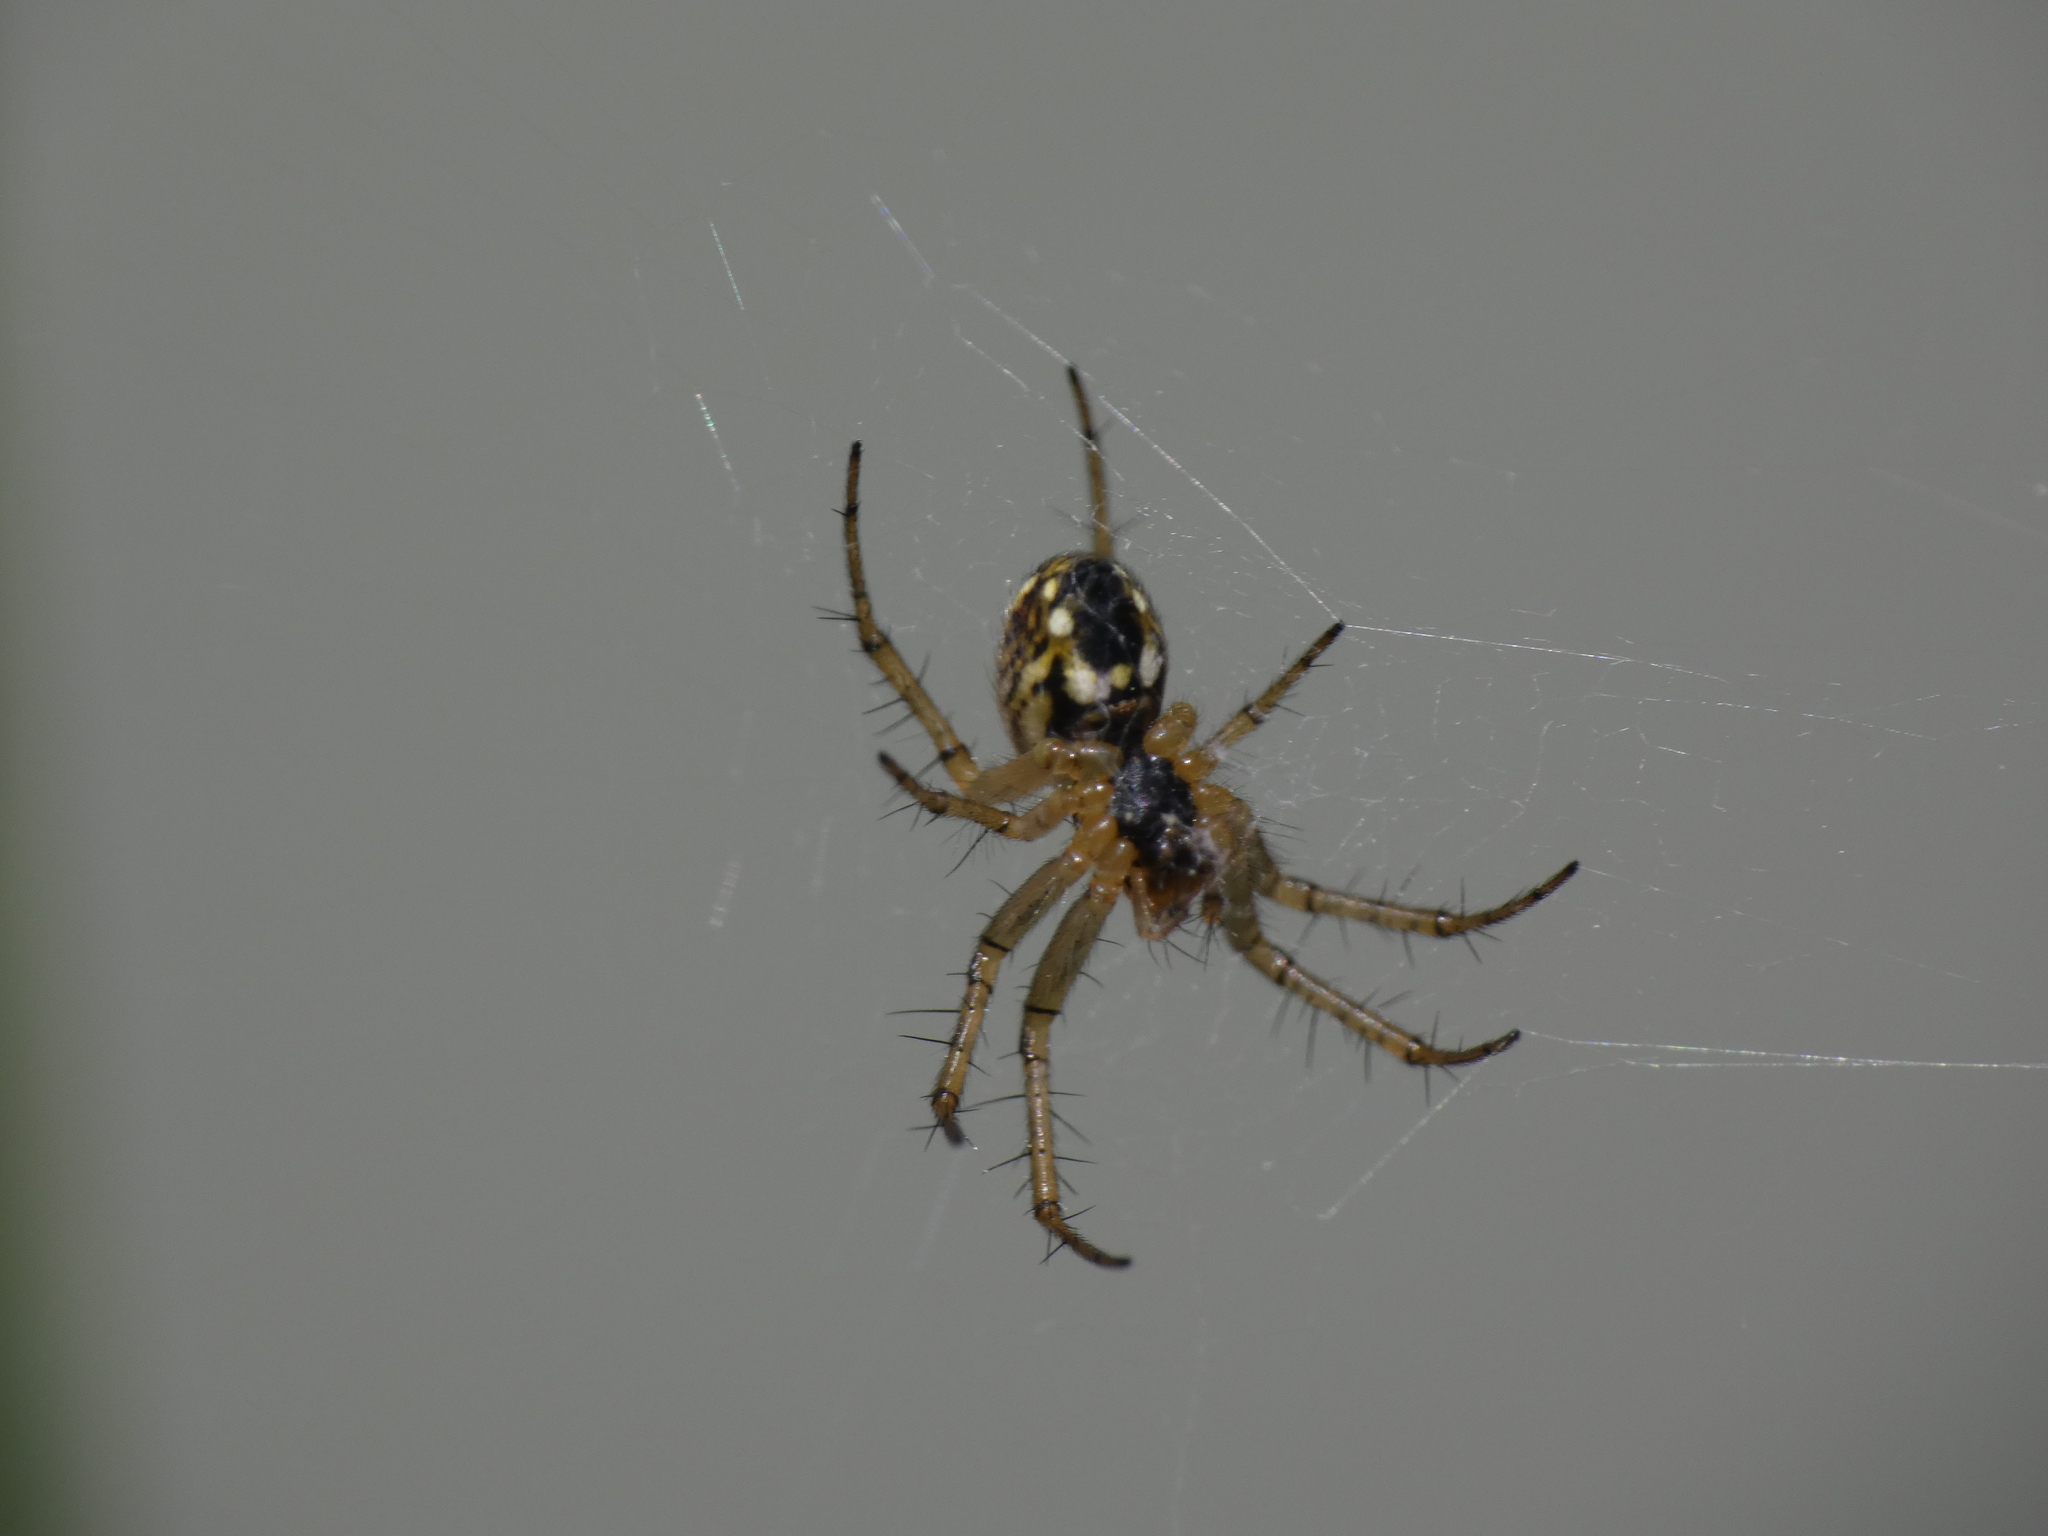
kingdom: Animalia
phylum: Arthropoda
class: Arachnida
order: Araneae
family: Araneidae
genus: Mangora
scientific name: Mangora acalypha
